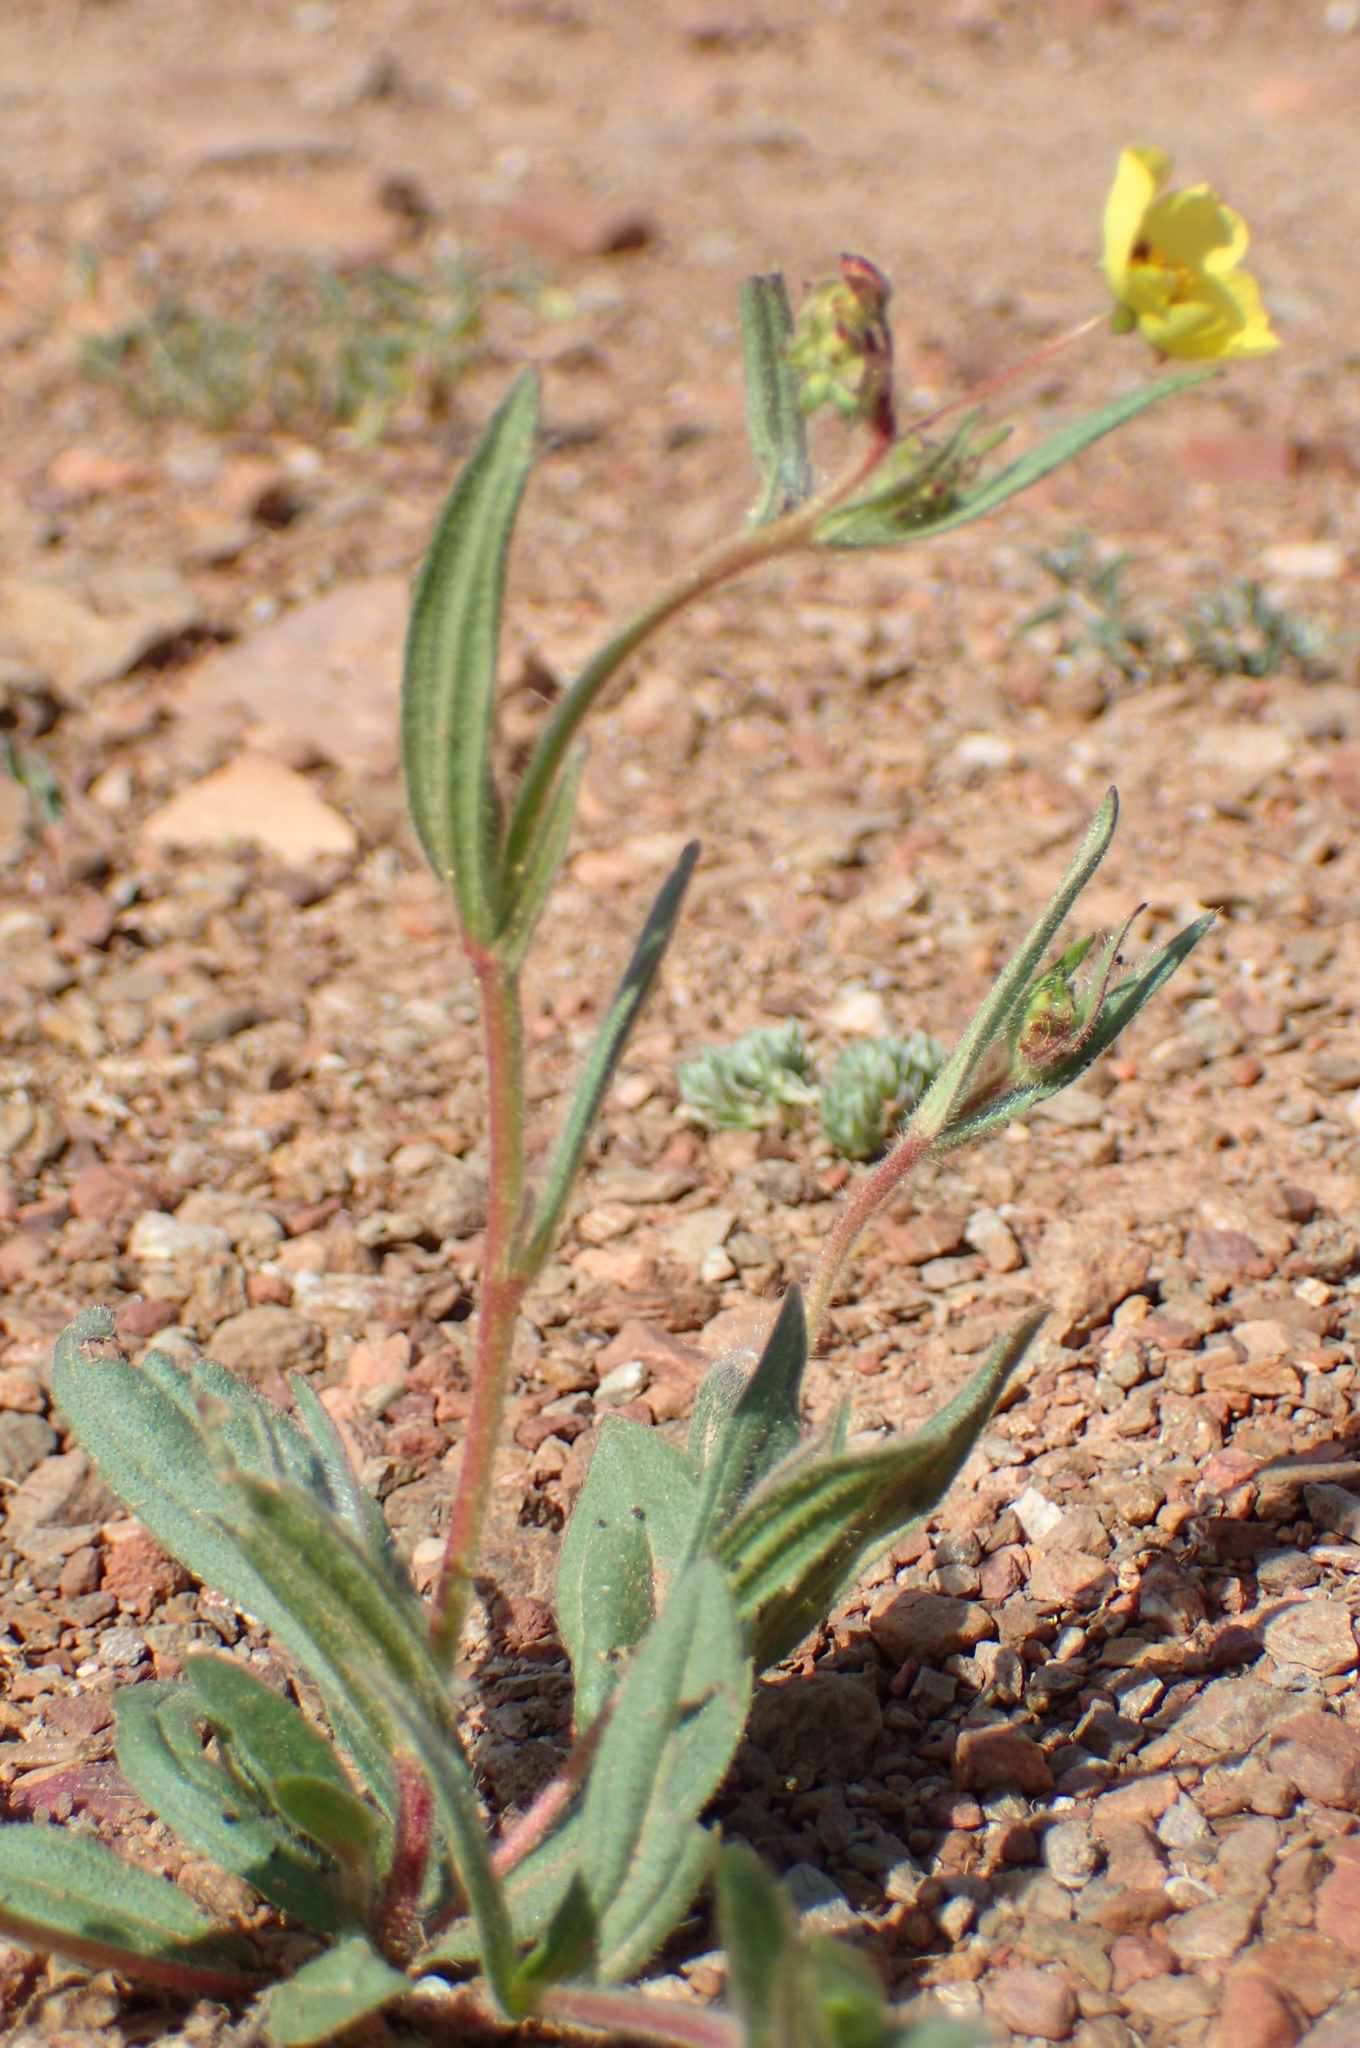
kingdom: Plantae
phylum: Tracheophyta
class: Magnoliopsida
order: Malvales
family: Cistaceae
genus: Tuberaria
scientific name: Tuberaria guttata
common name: Spotted rock-rose
